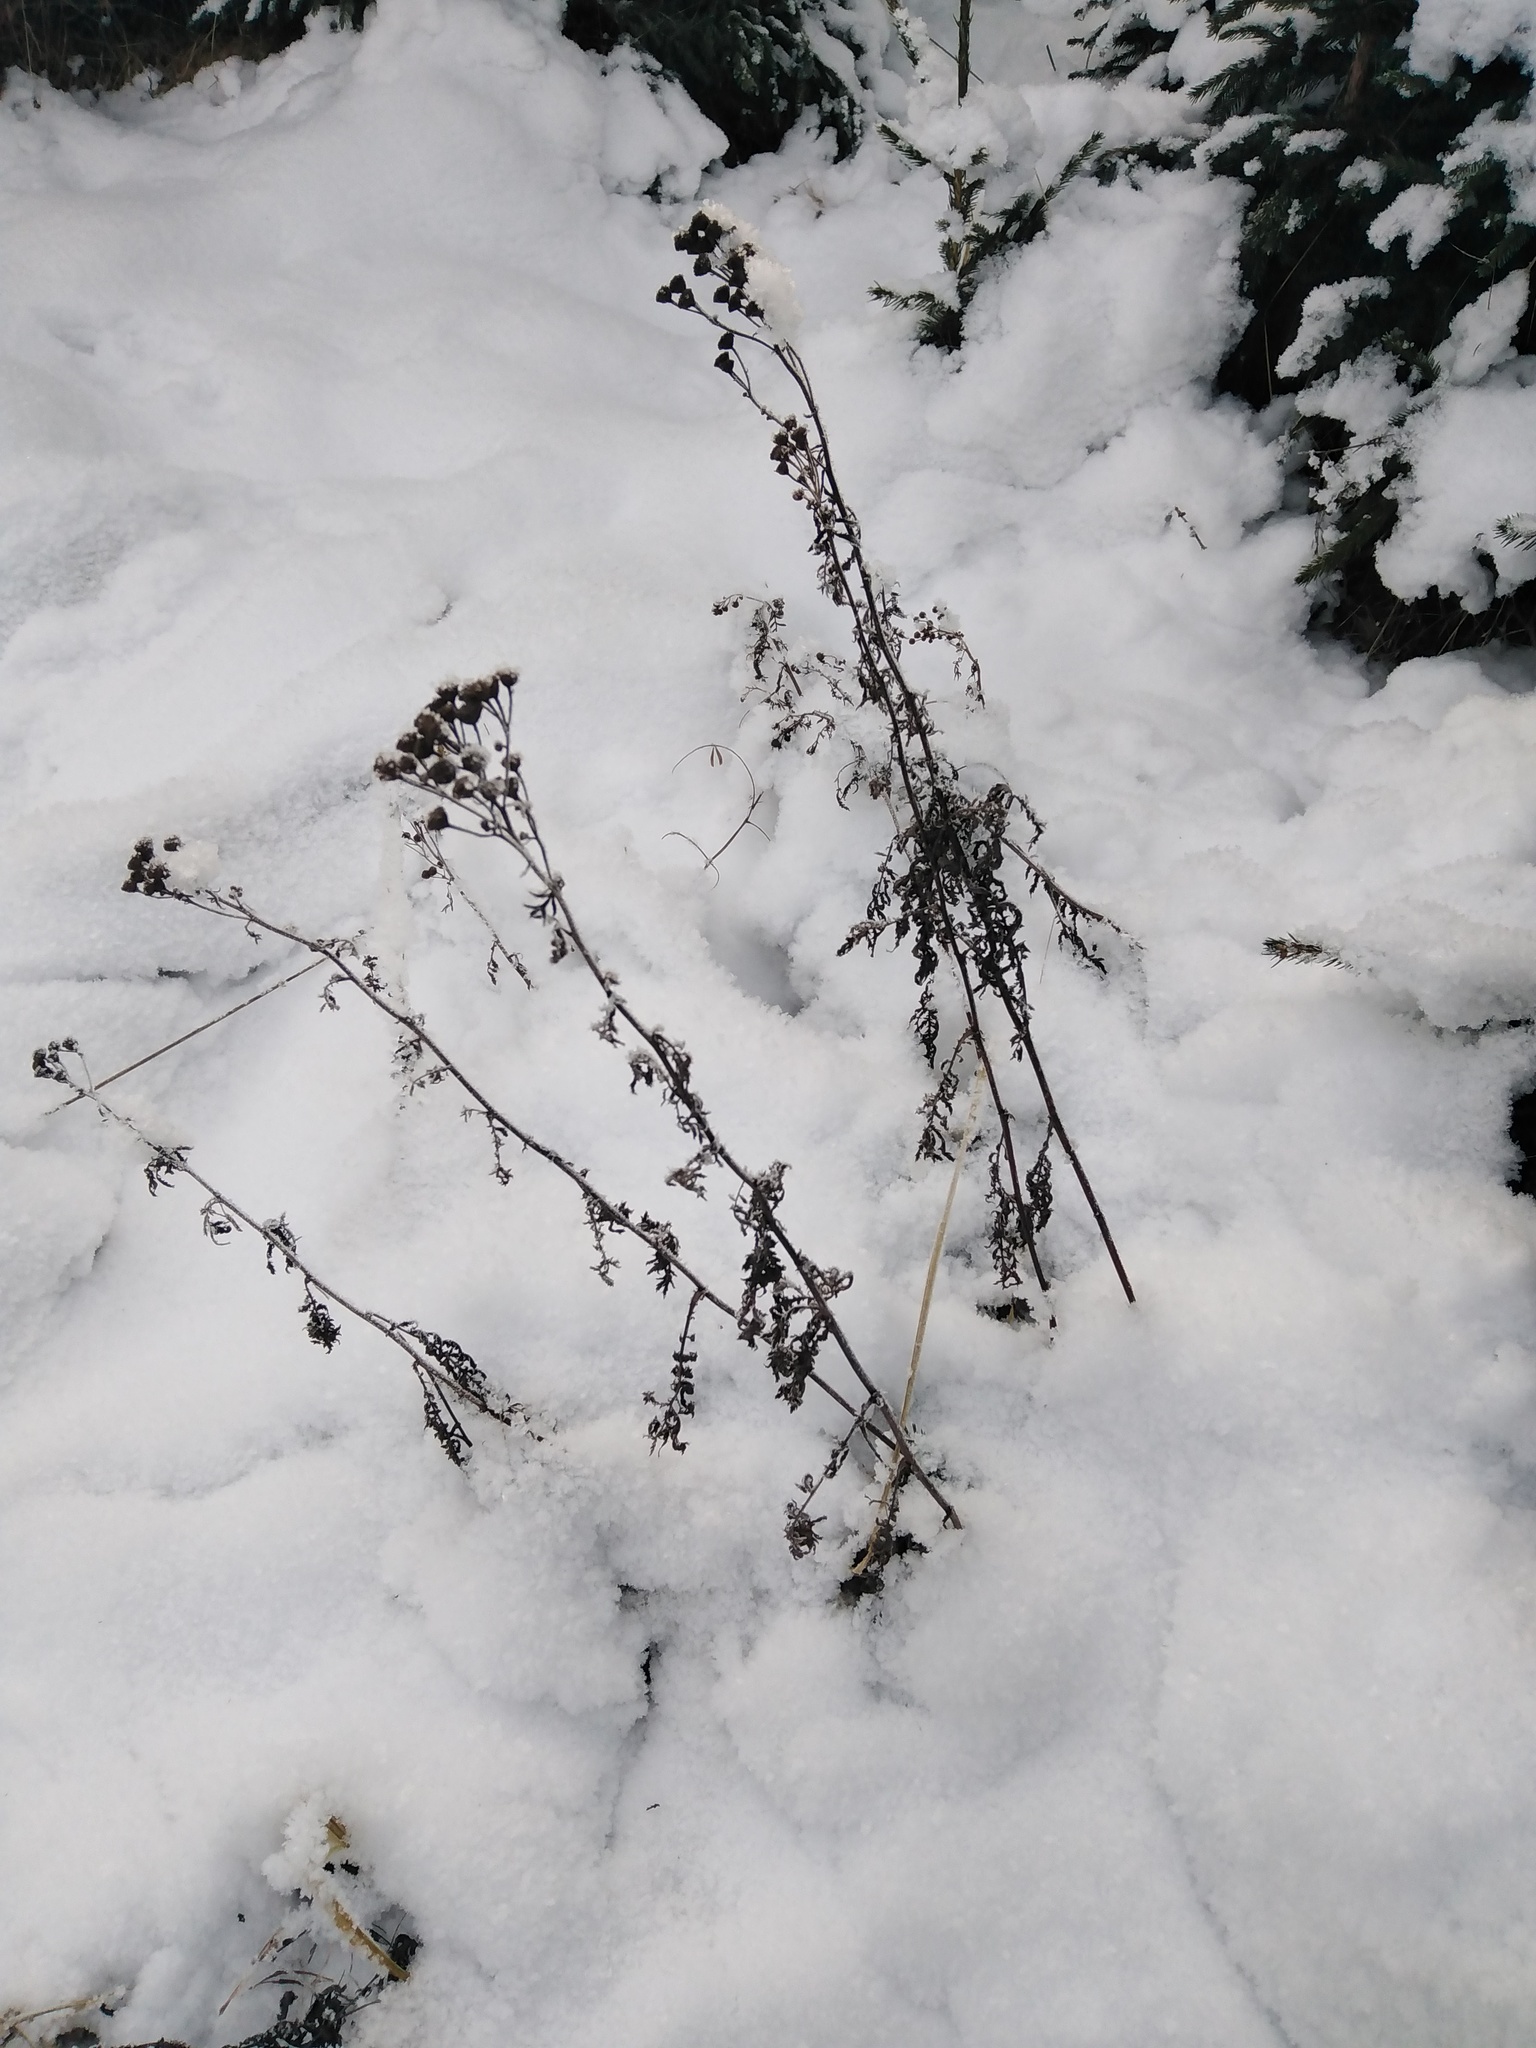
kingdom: Plantae
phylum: Tracheophyta
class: Magnoliopsida
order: Asterales
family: Asteraceae
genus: Tanacetum
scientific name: Tanacetum vulgare
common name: Common tansy
